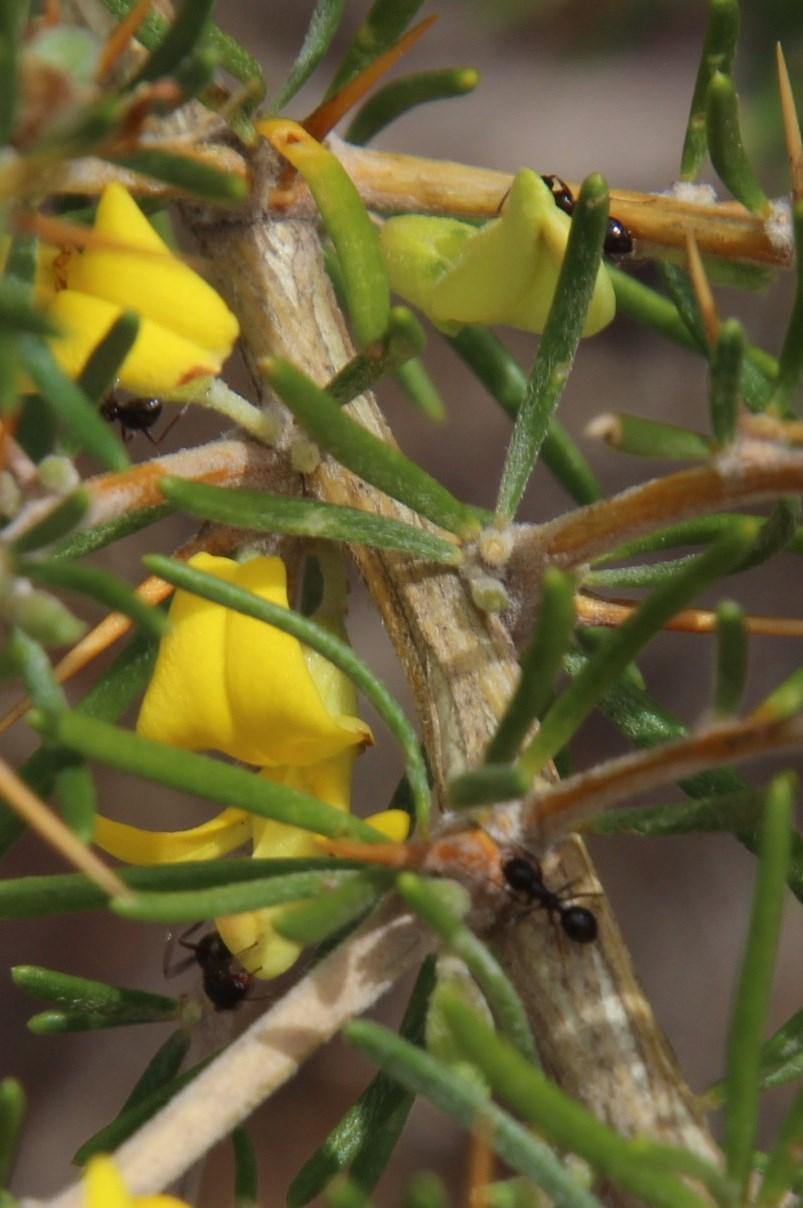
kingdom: Animalia
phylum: Arthropoda
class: Insecta
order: Hymenoptera
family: Formicidae
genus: Lepisiota
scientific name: Lepisiota capensis
